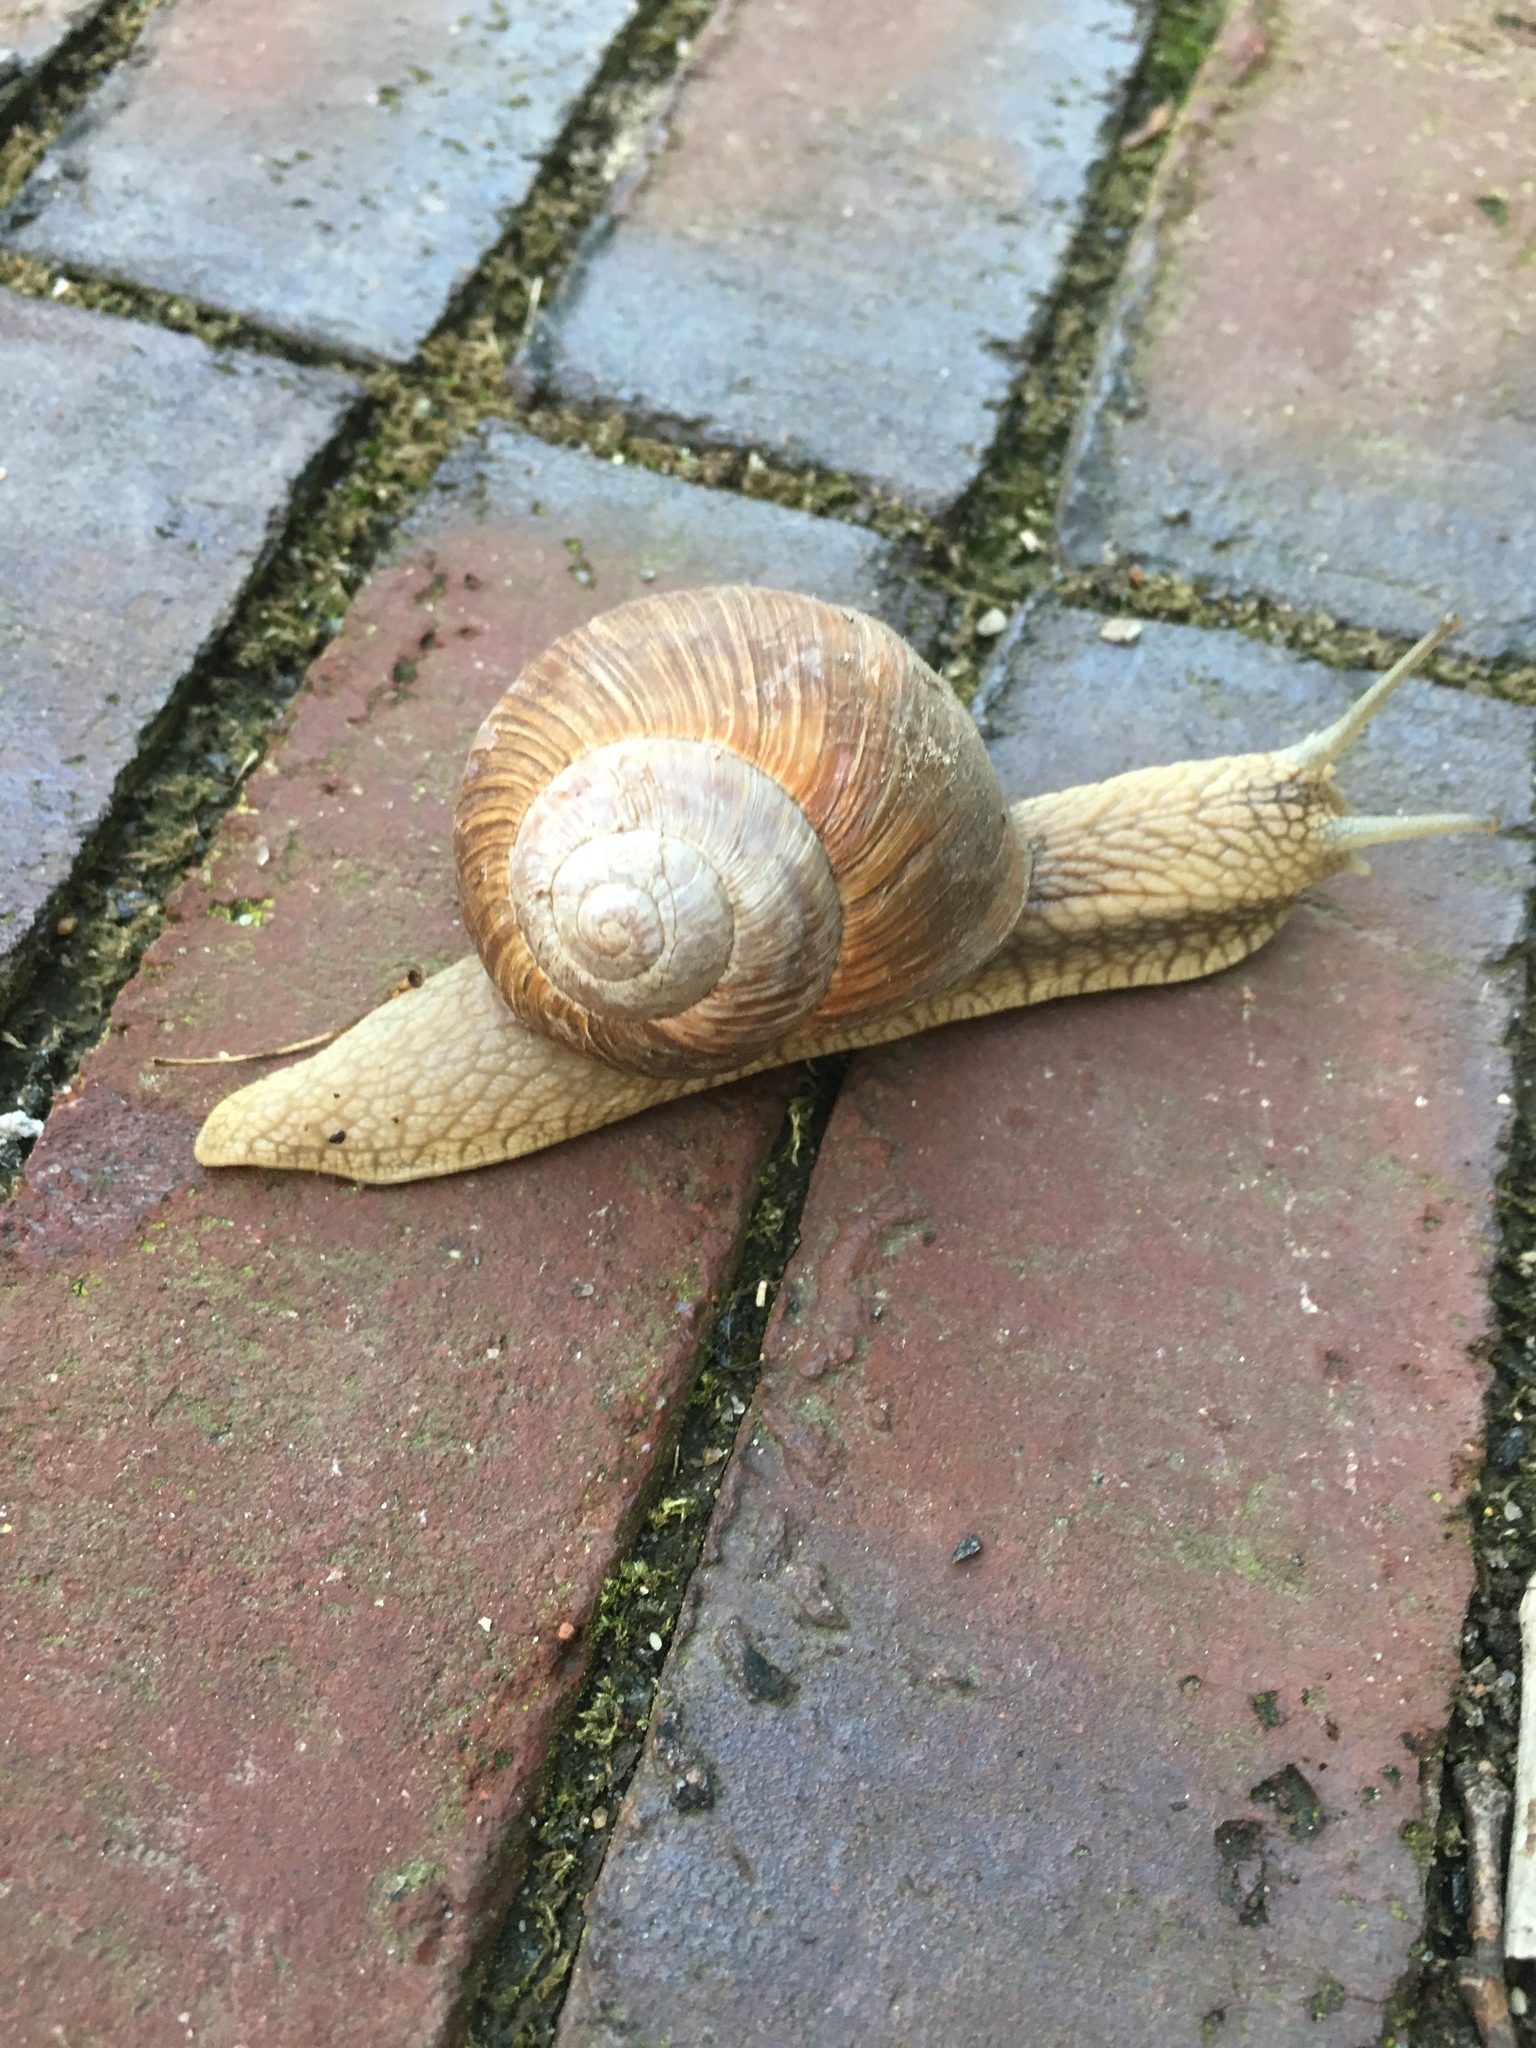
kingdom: Animalia
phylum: Mollusca
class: Gastropoda
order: Stylommatophora
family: Helicidae
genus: Helix
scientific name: Helix pomatia
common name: Roman snail
